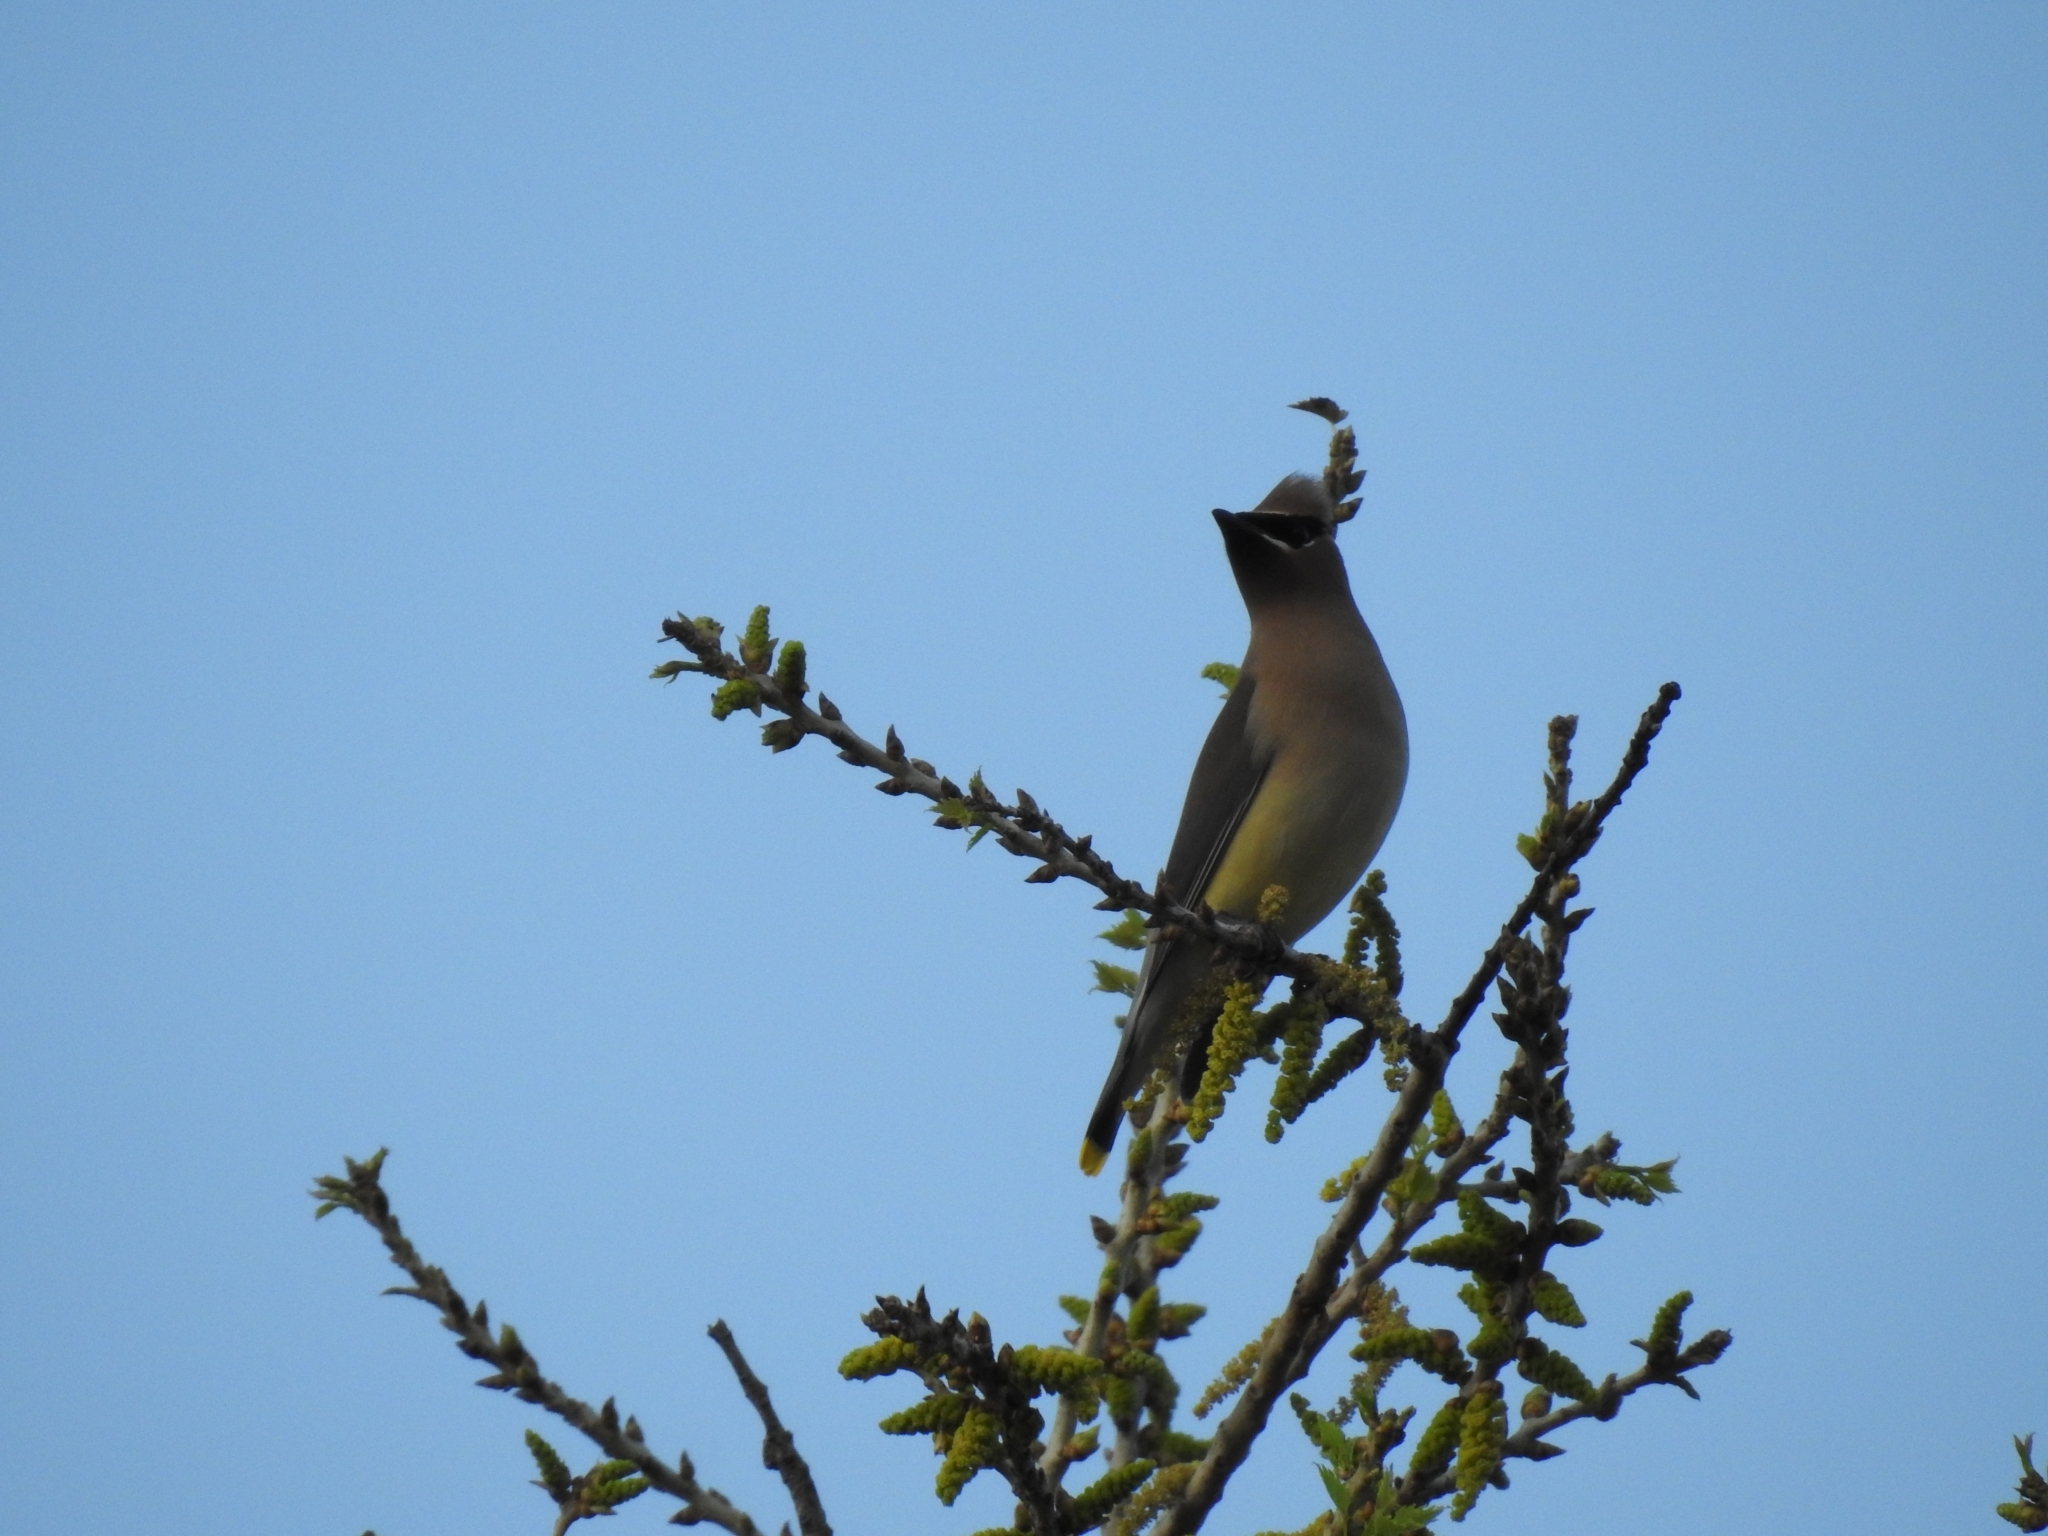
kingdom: Animalia
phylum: Chordata
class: Aves
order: Passeriformes
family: Bombycillidae
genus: Bombycilla
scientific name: Bombycilla cedrorum
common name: Cedar waxwing
